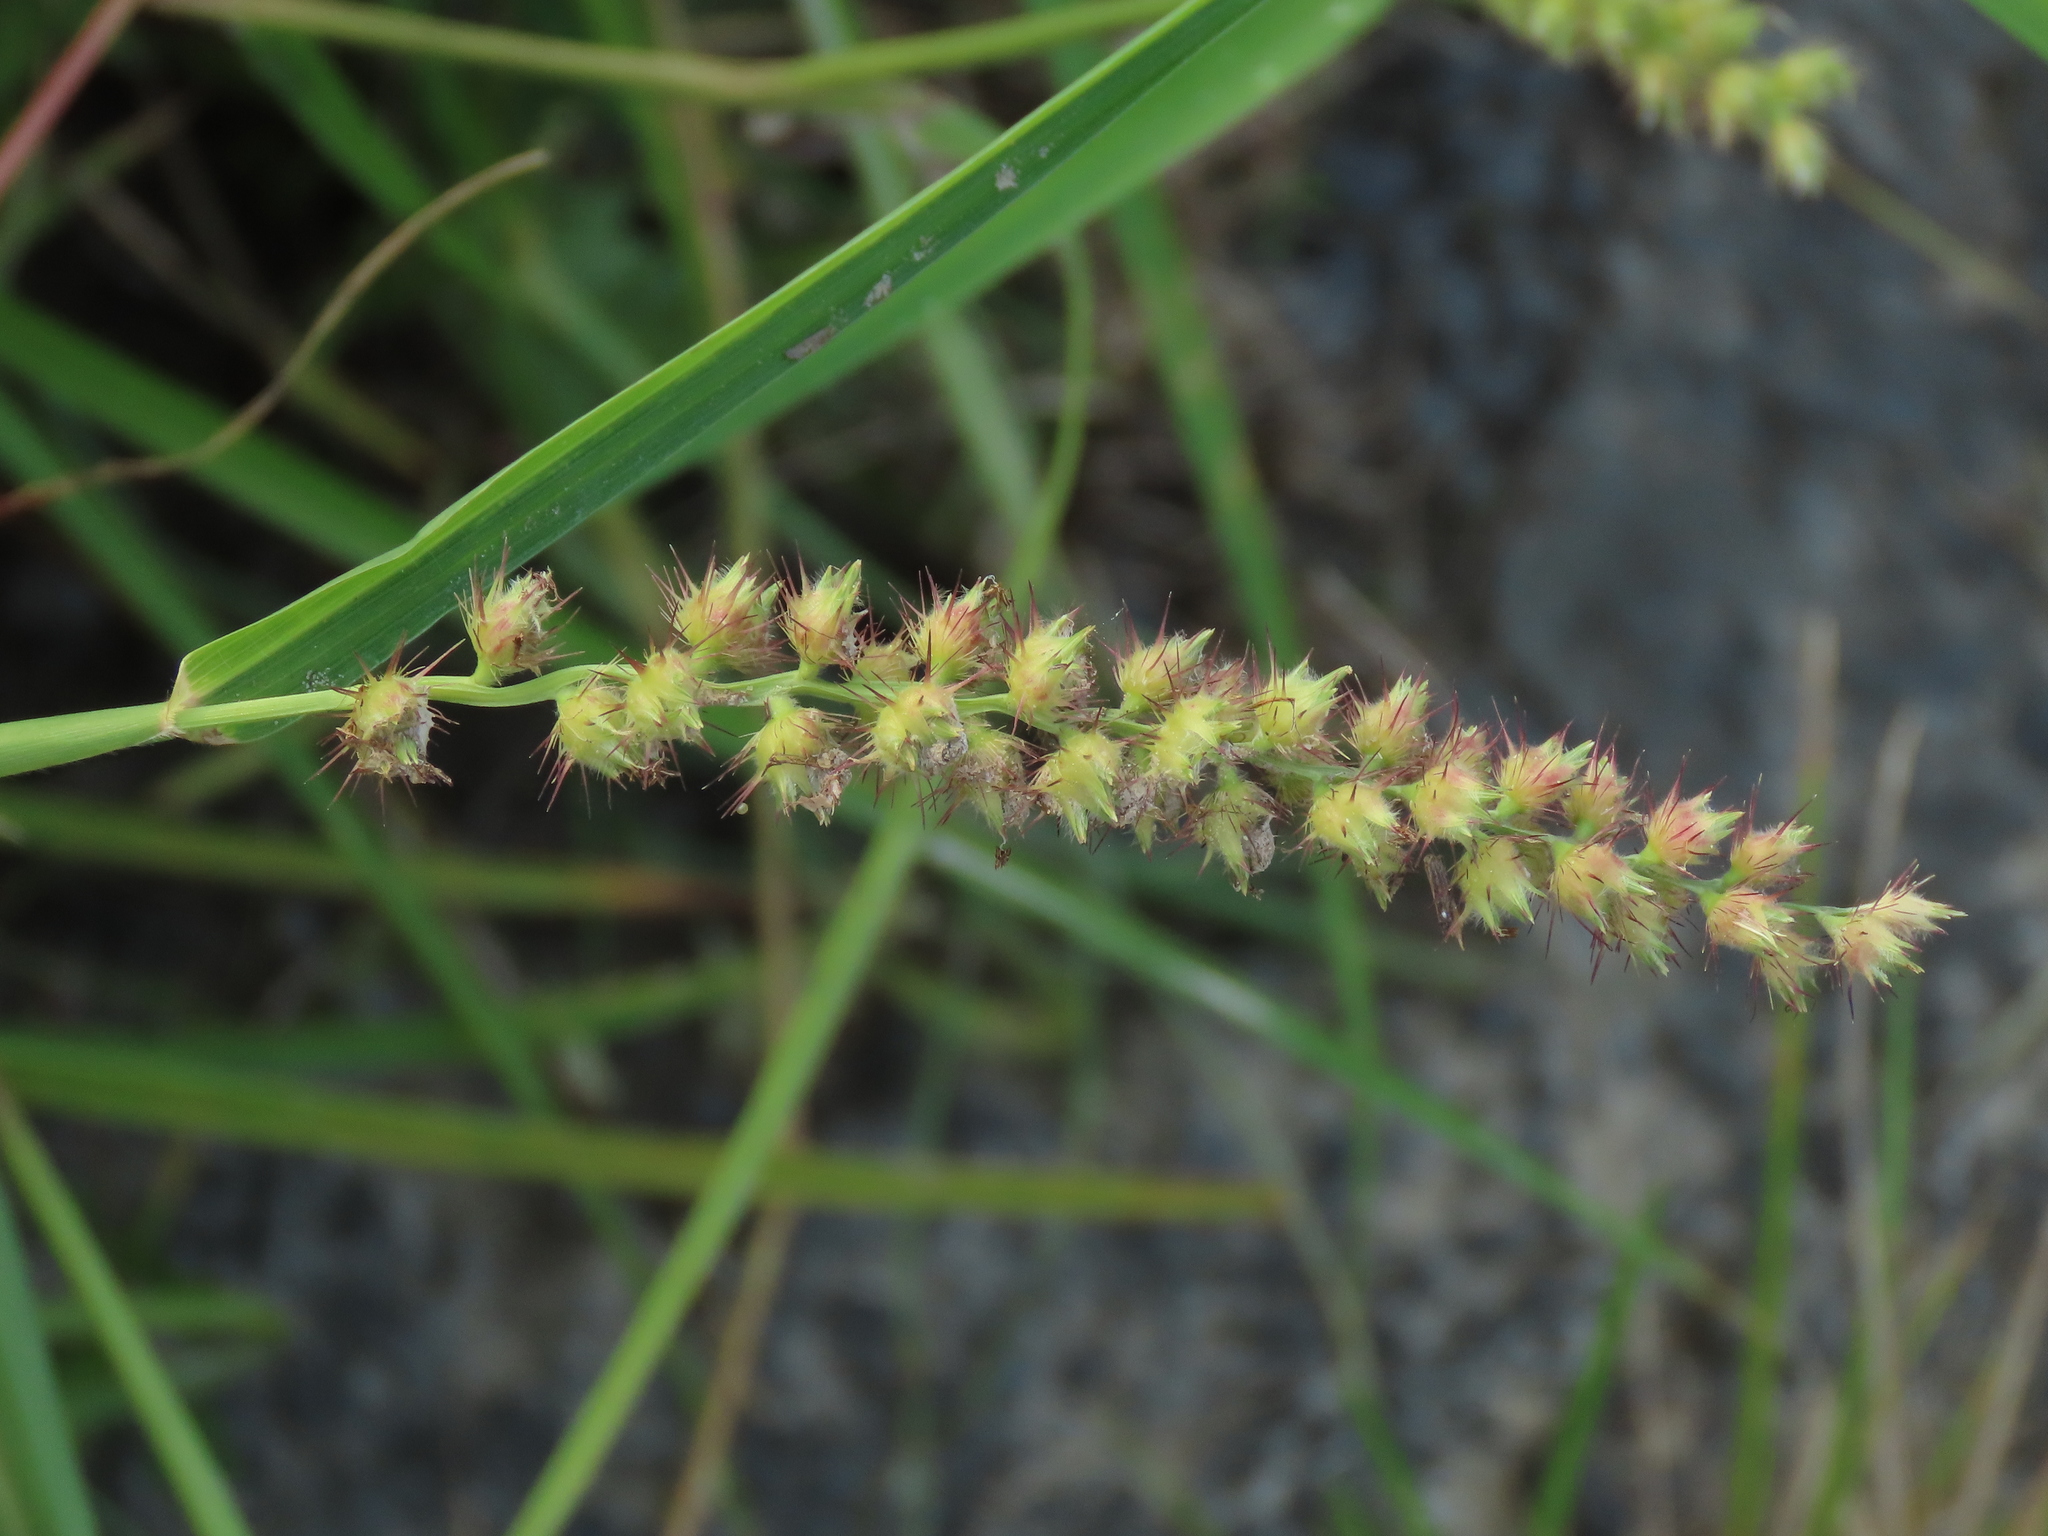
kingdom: Plantae
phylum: Tracheophyta
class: Liliopsida
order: Poales
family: Poaceae
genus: Cenchrus
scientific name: Cenchrus echinatus
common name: Southern sandbur
